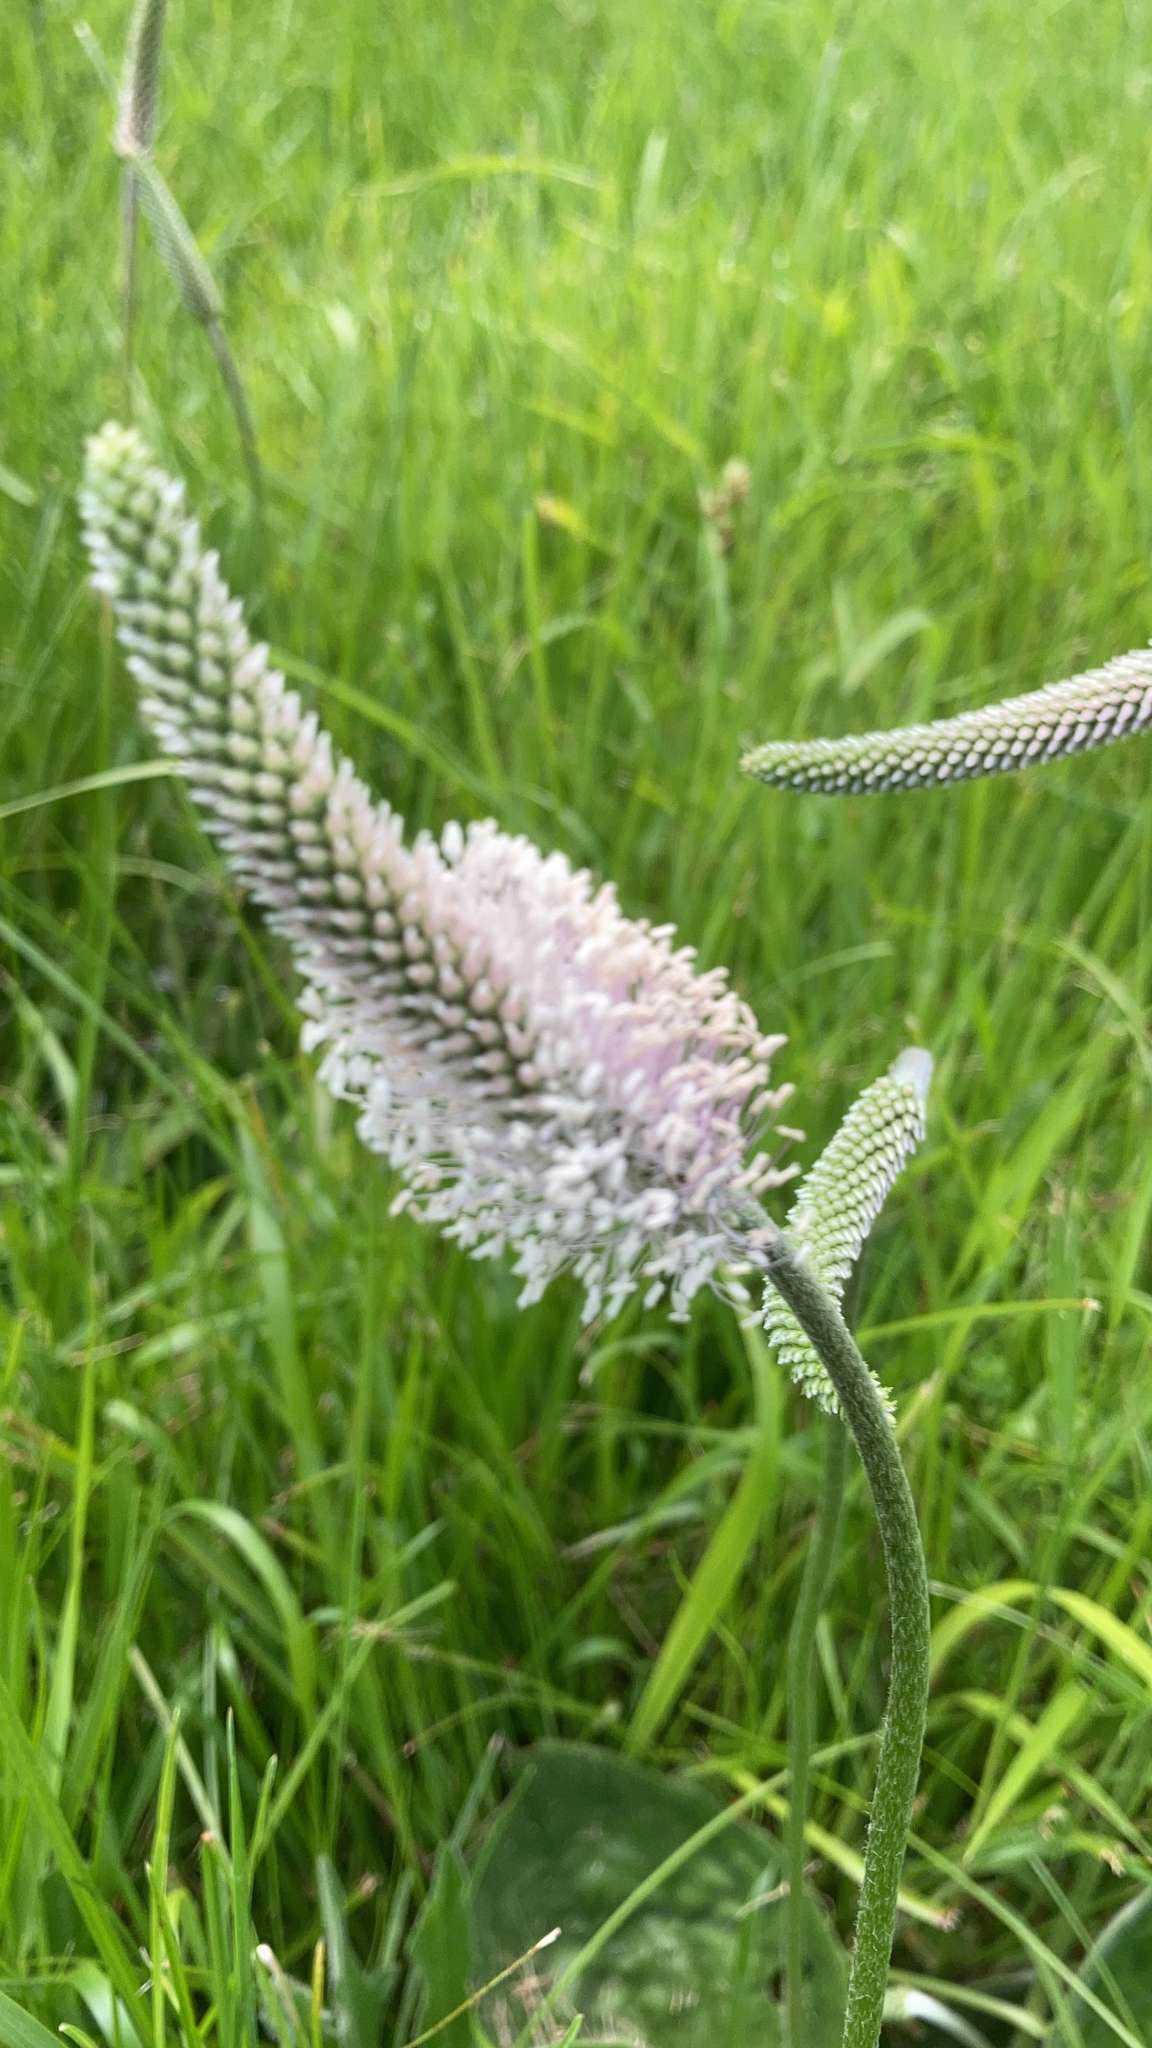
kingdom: Plantae
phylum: Tracheophyta
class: Magnoliopsida
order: Lamiales
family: Plantaginaceae
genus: Plantago
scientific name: Plantago media
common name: Hoary plantain
